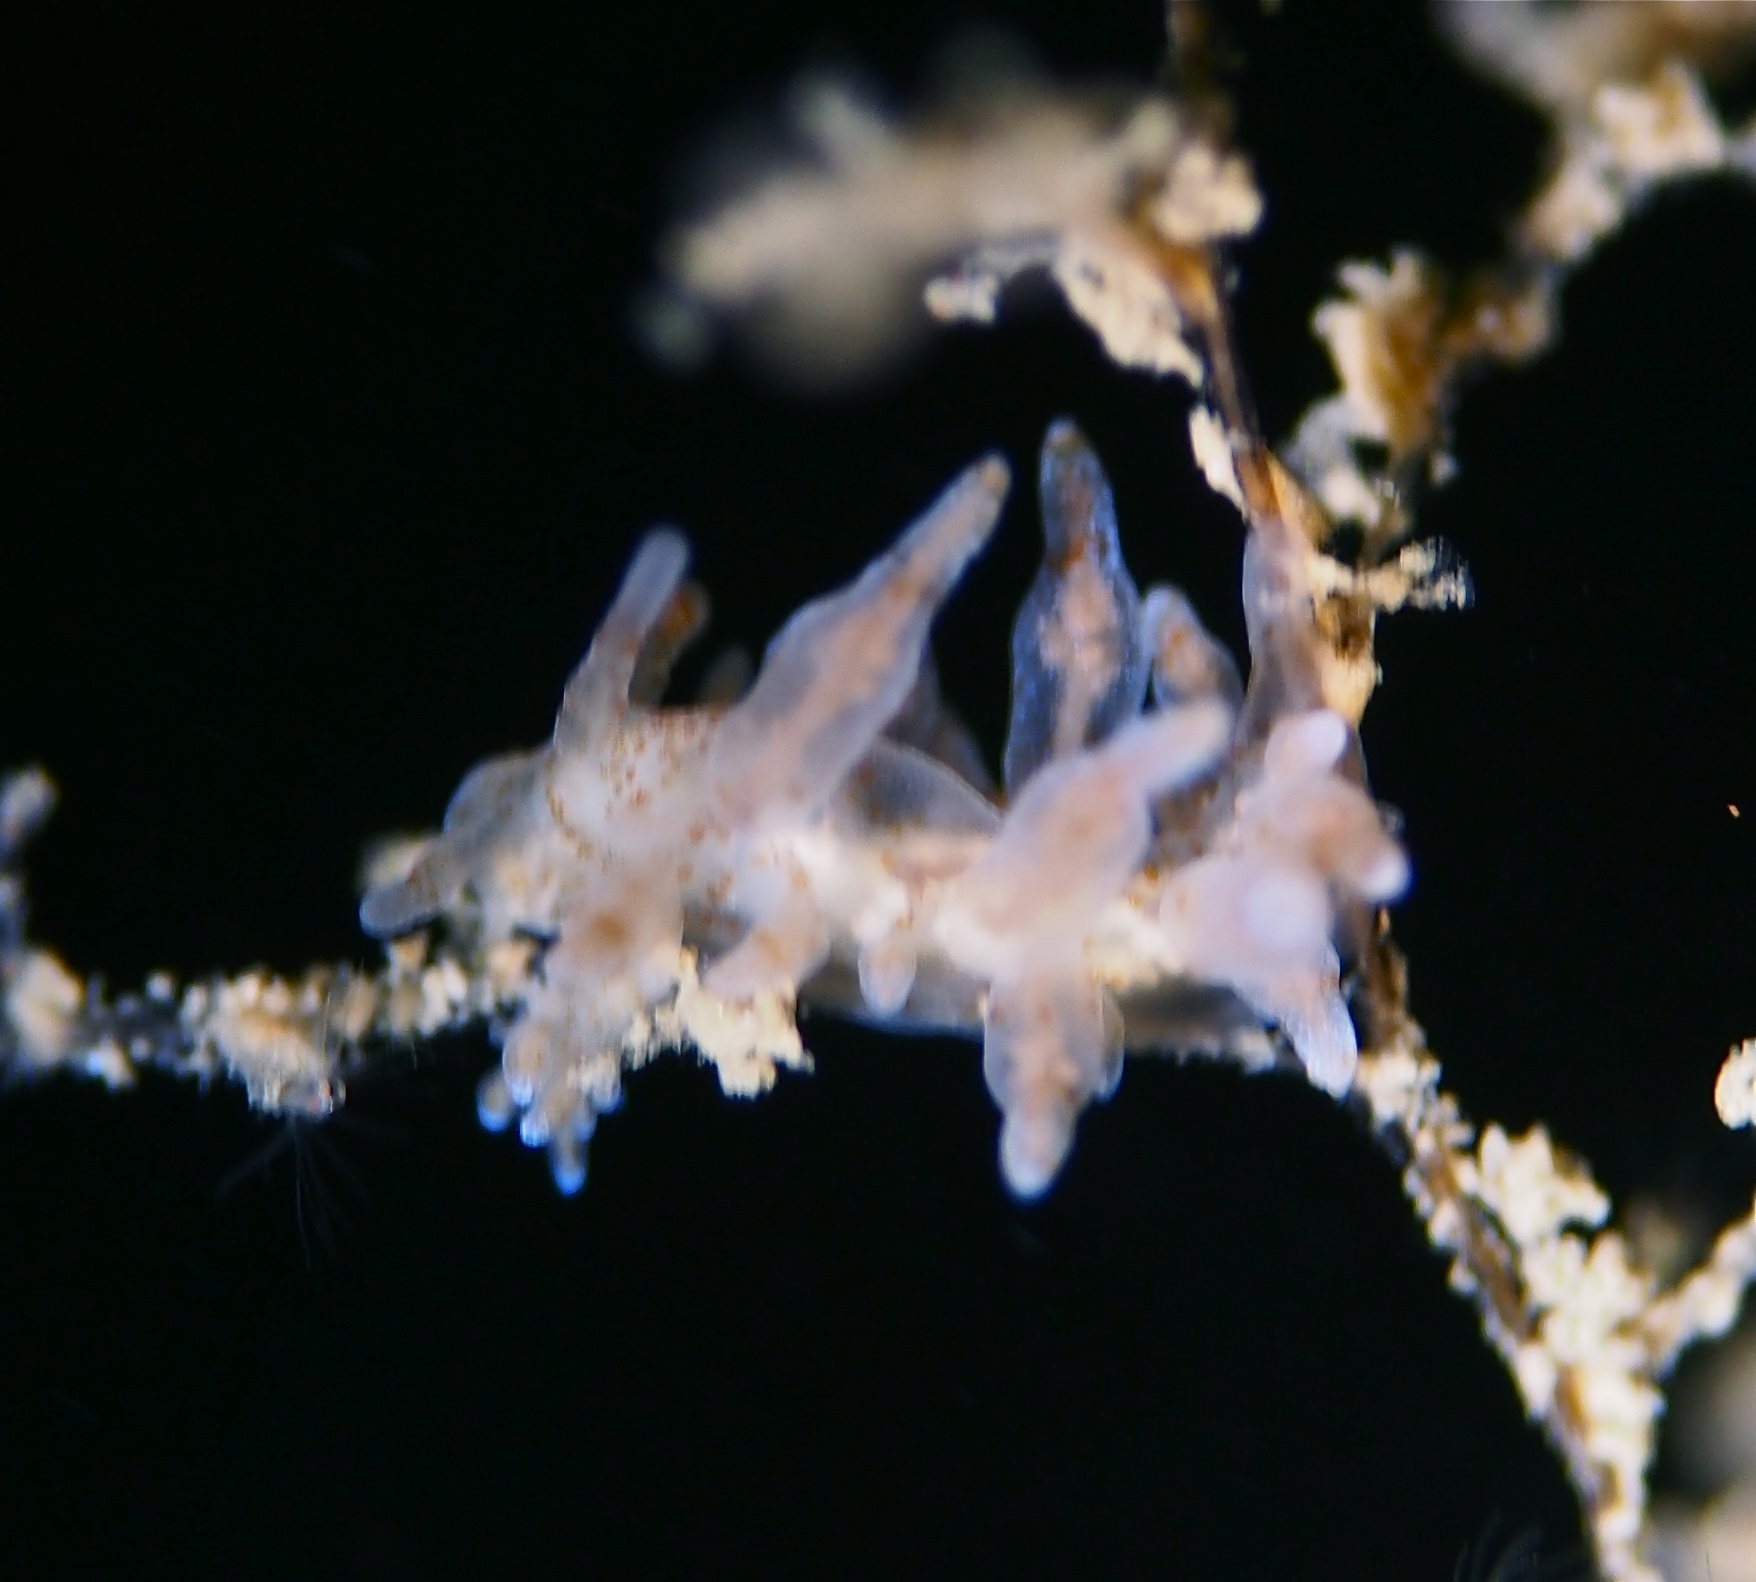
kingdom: Animalia
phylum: Mollusca
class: Gastropoda
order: Nudibranchia
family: Eubranchidae
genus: Eubranchus
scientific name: Eubranchus rupium
